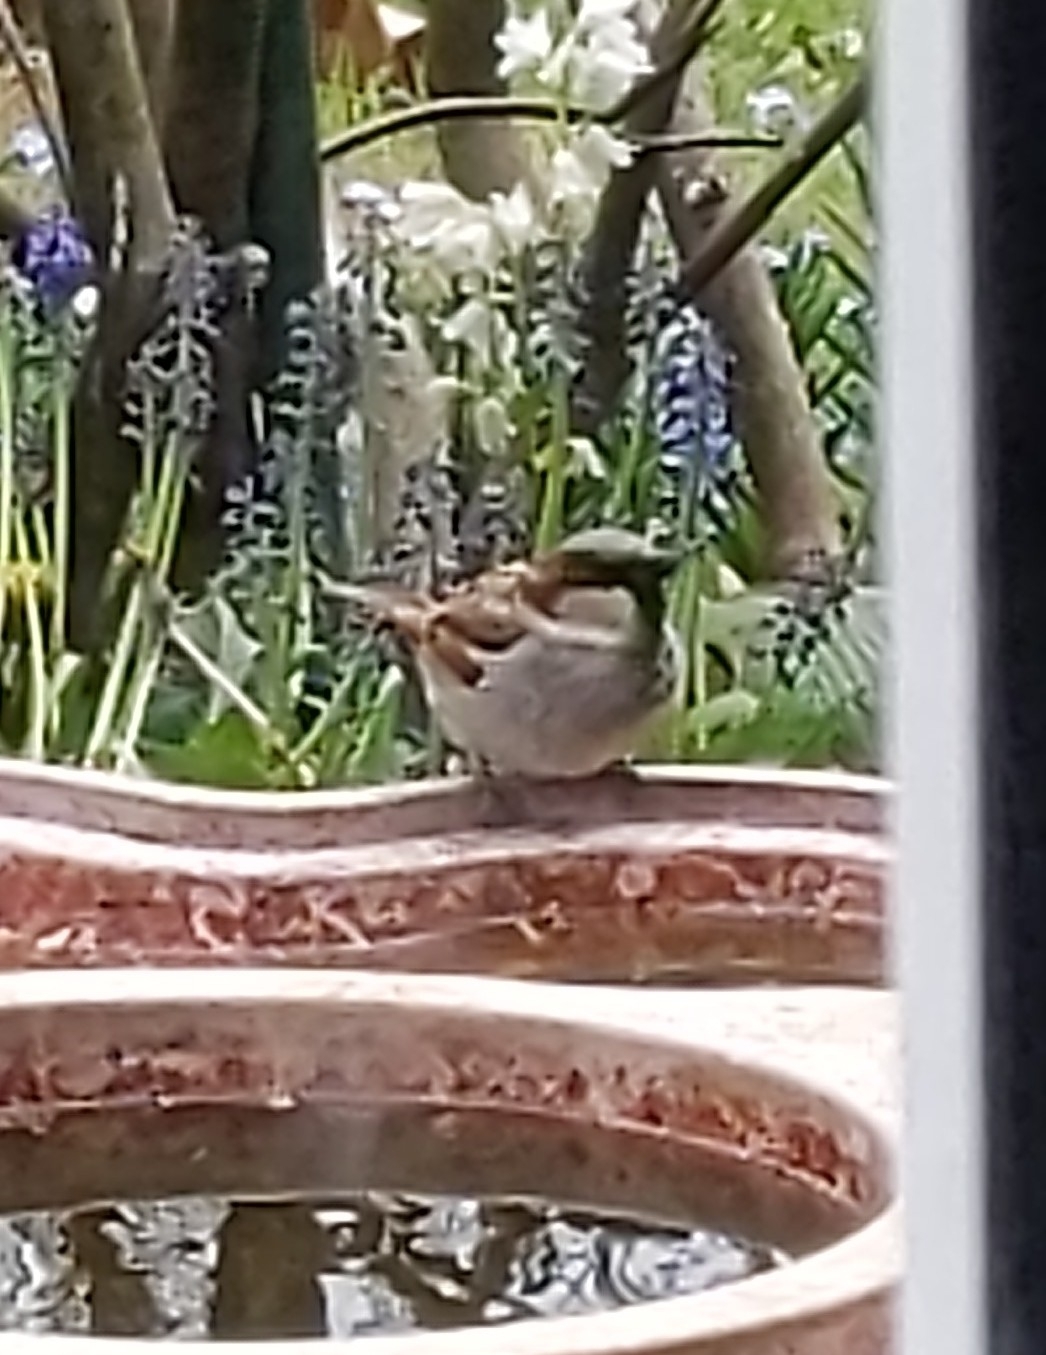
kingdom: Animalia
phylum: Chordata
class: Aves
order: Passeriformes
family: Passeridae
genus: Passer
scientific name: Passer domesticus
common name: House sparrow
